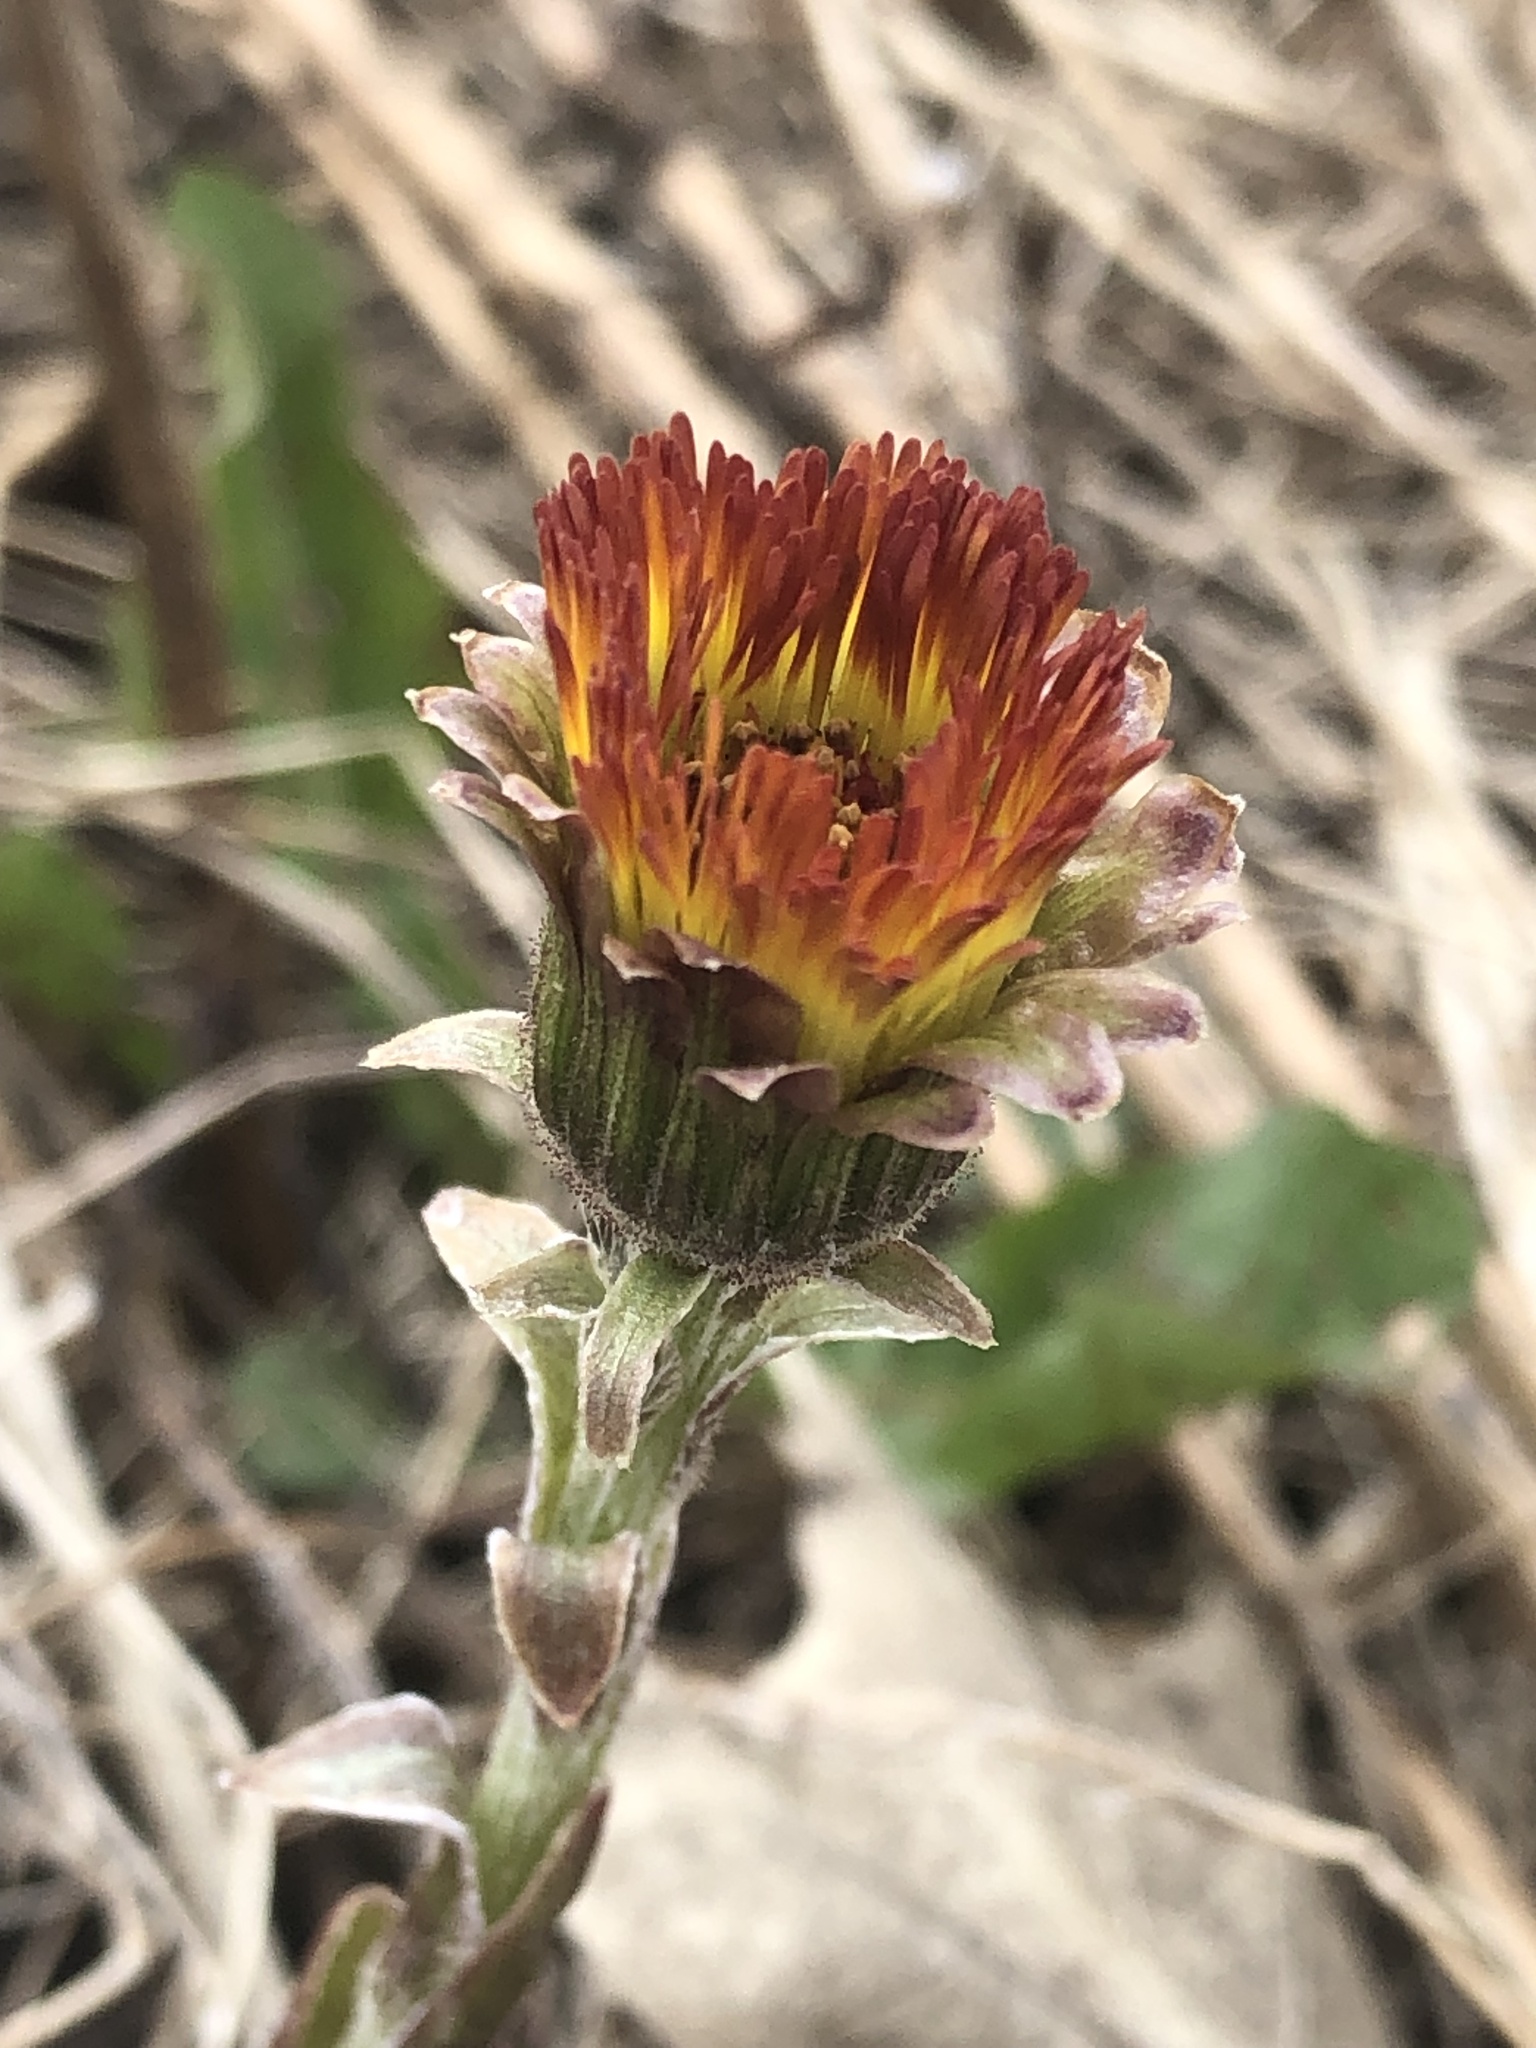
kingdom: Plantae
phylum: Tracheophyta
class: Magnoliopsida
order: Asterales
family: Asteraceae
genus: Tussilago
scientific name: Tussilago farfara
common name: Coltsfoot
